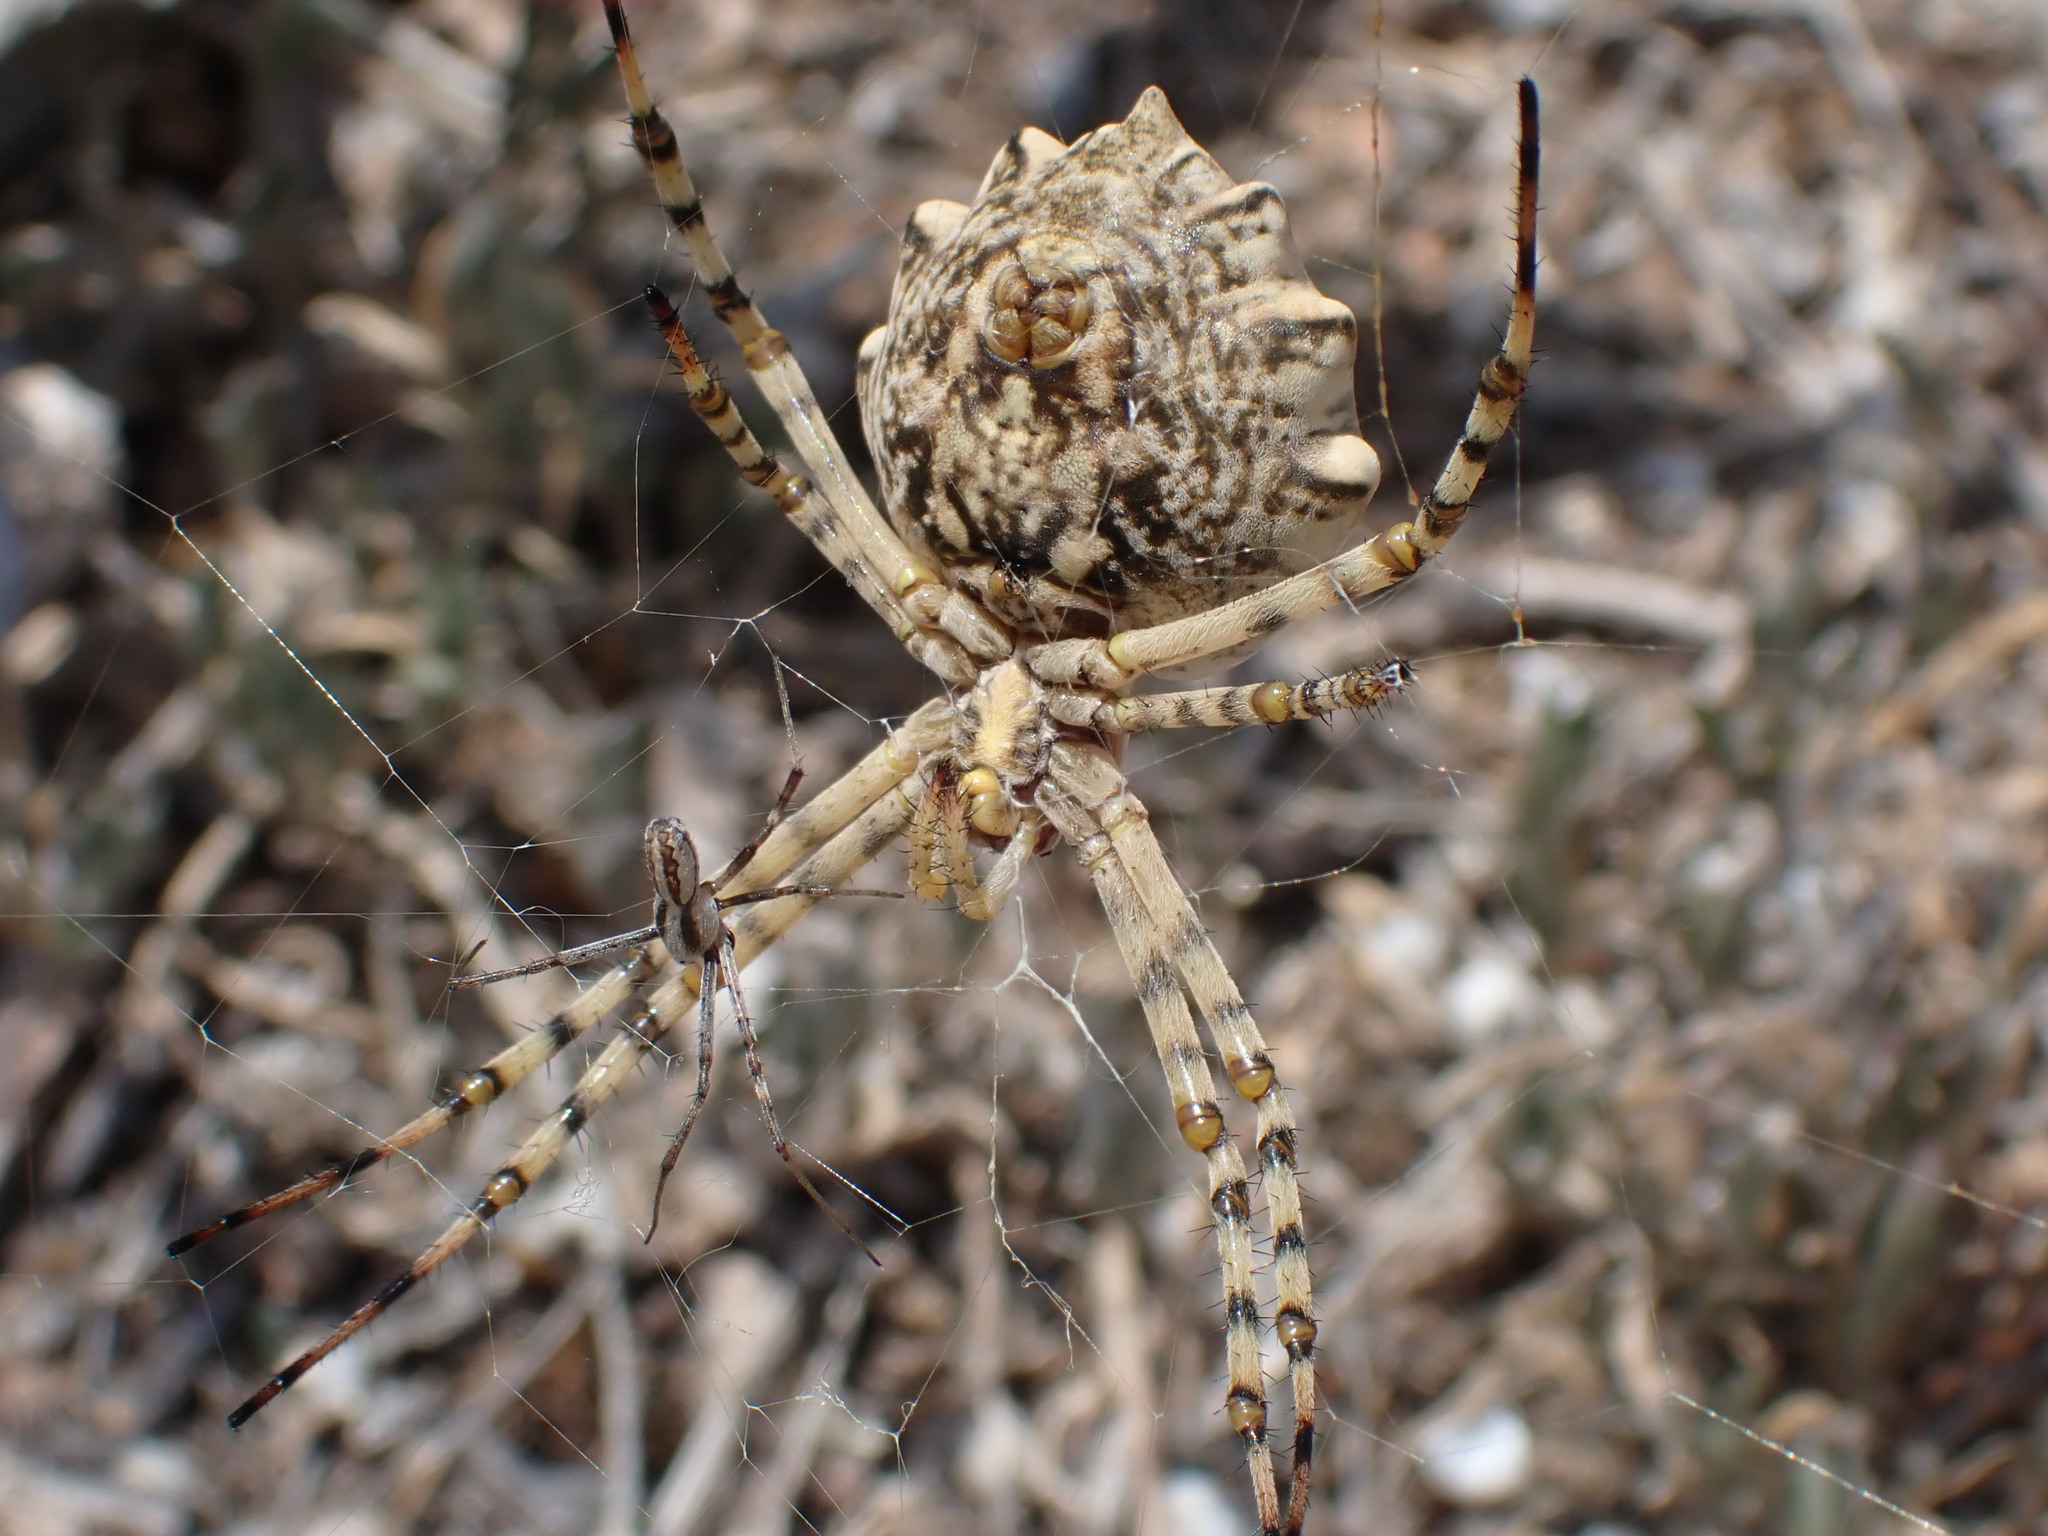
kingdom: Animalia
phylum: Arthropoda
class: Arachnida
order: Araneae
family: Araneidae
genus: Argiope
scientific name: Argiope lobata
